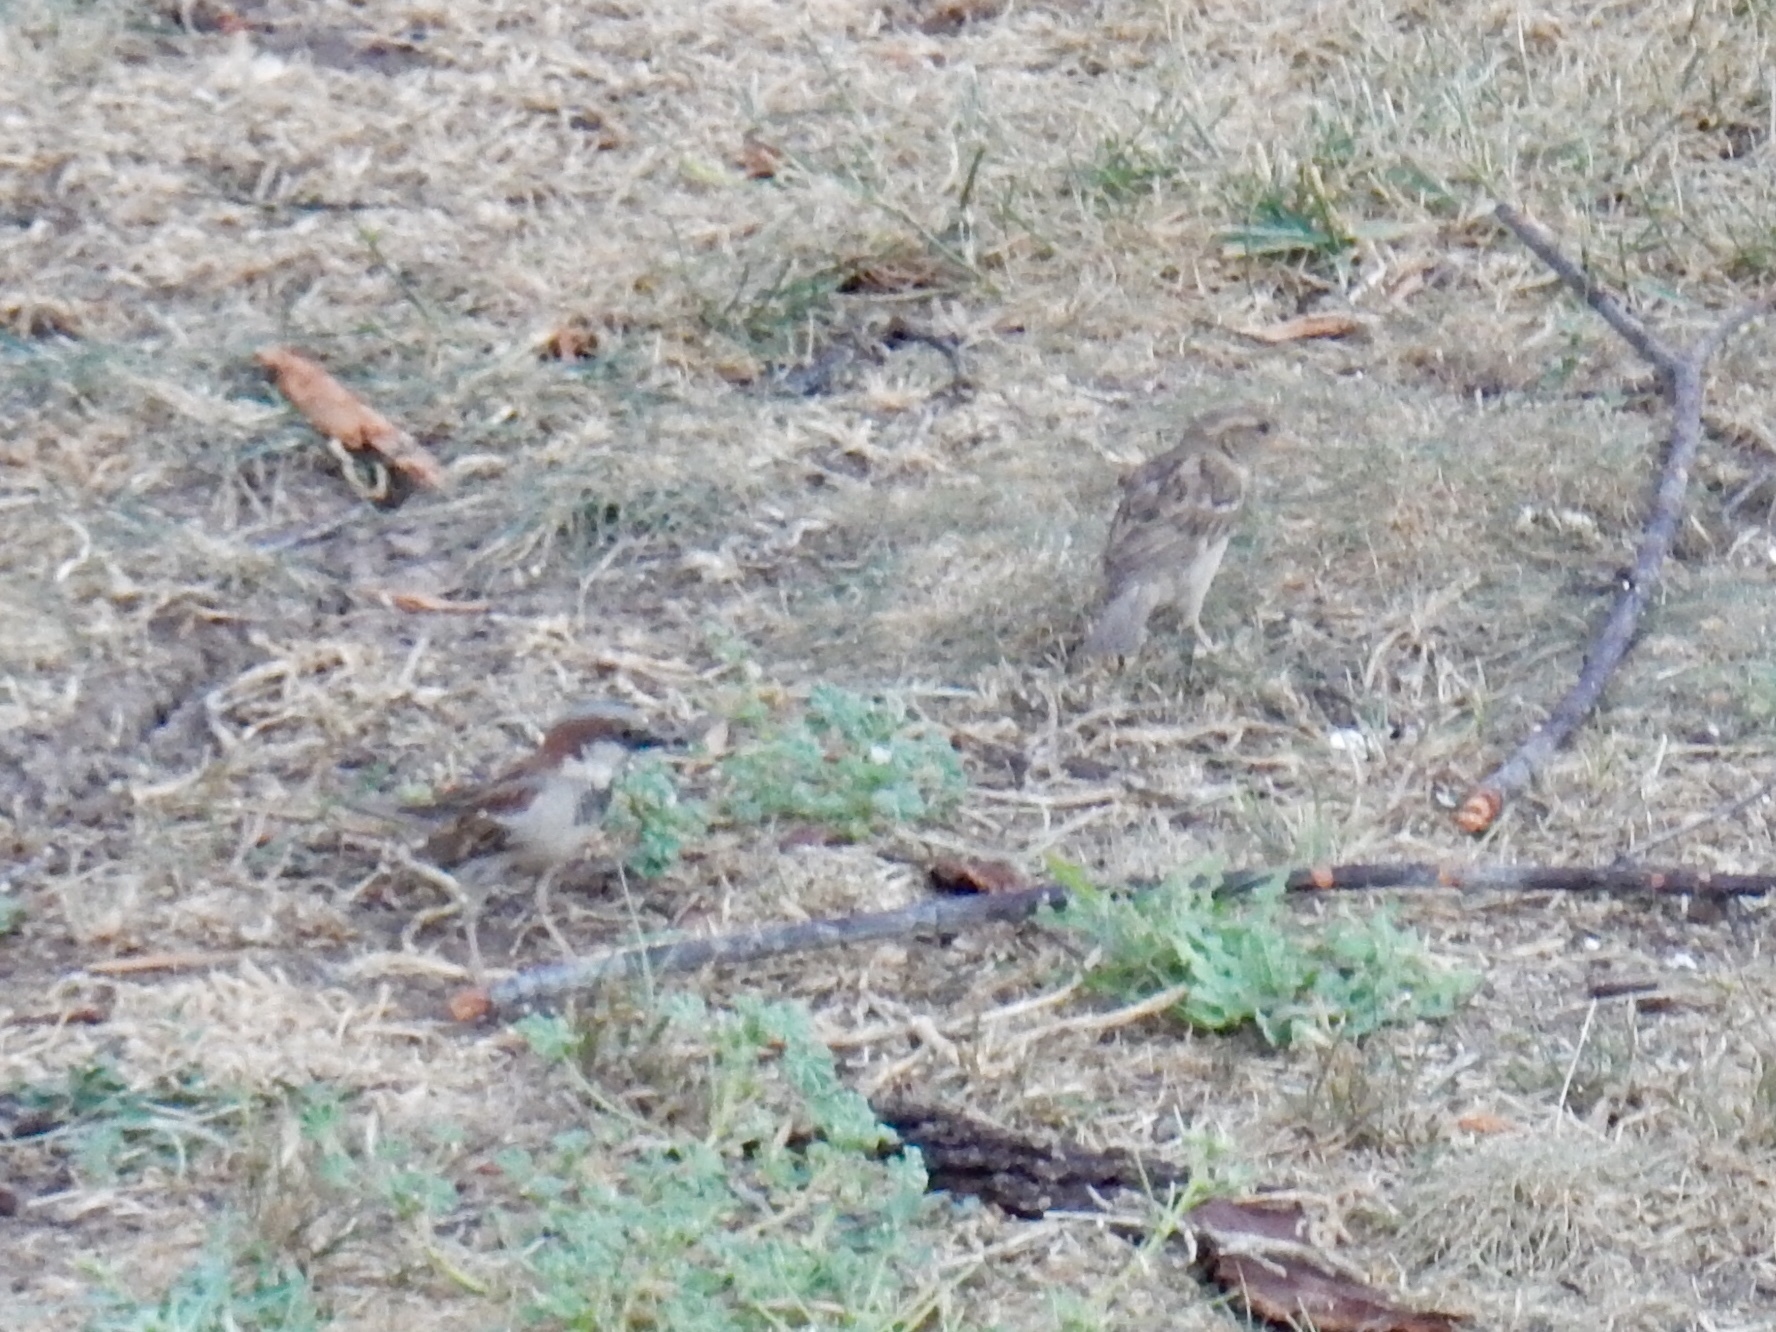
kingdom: Animalia
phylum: Chordata
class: Aves
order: Passeriformes
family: Passeridae
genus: Passer
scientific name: Passer domesticus
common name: House sparrow
